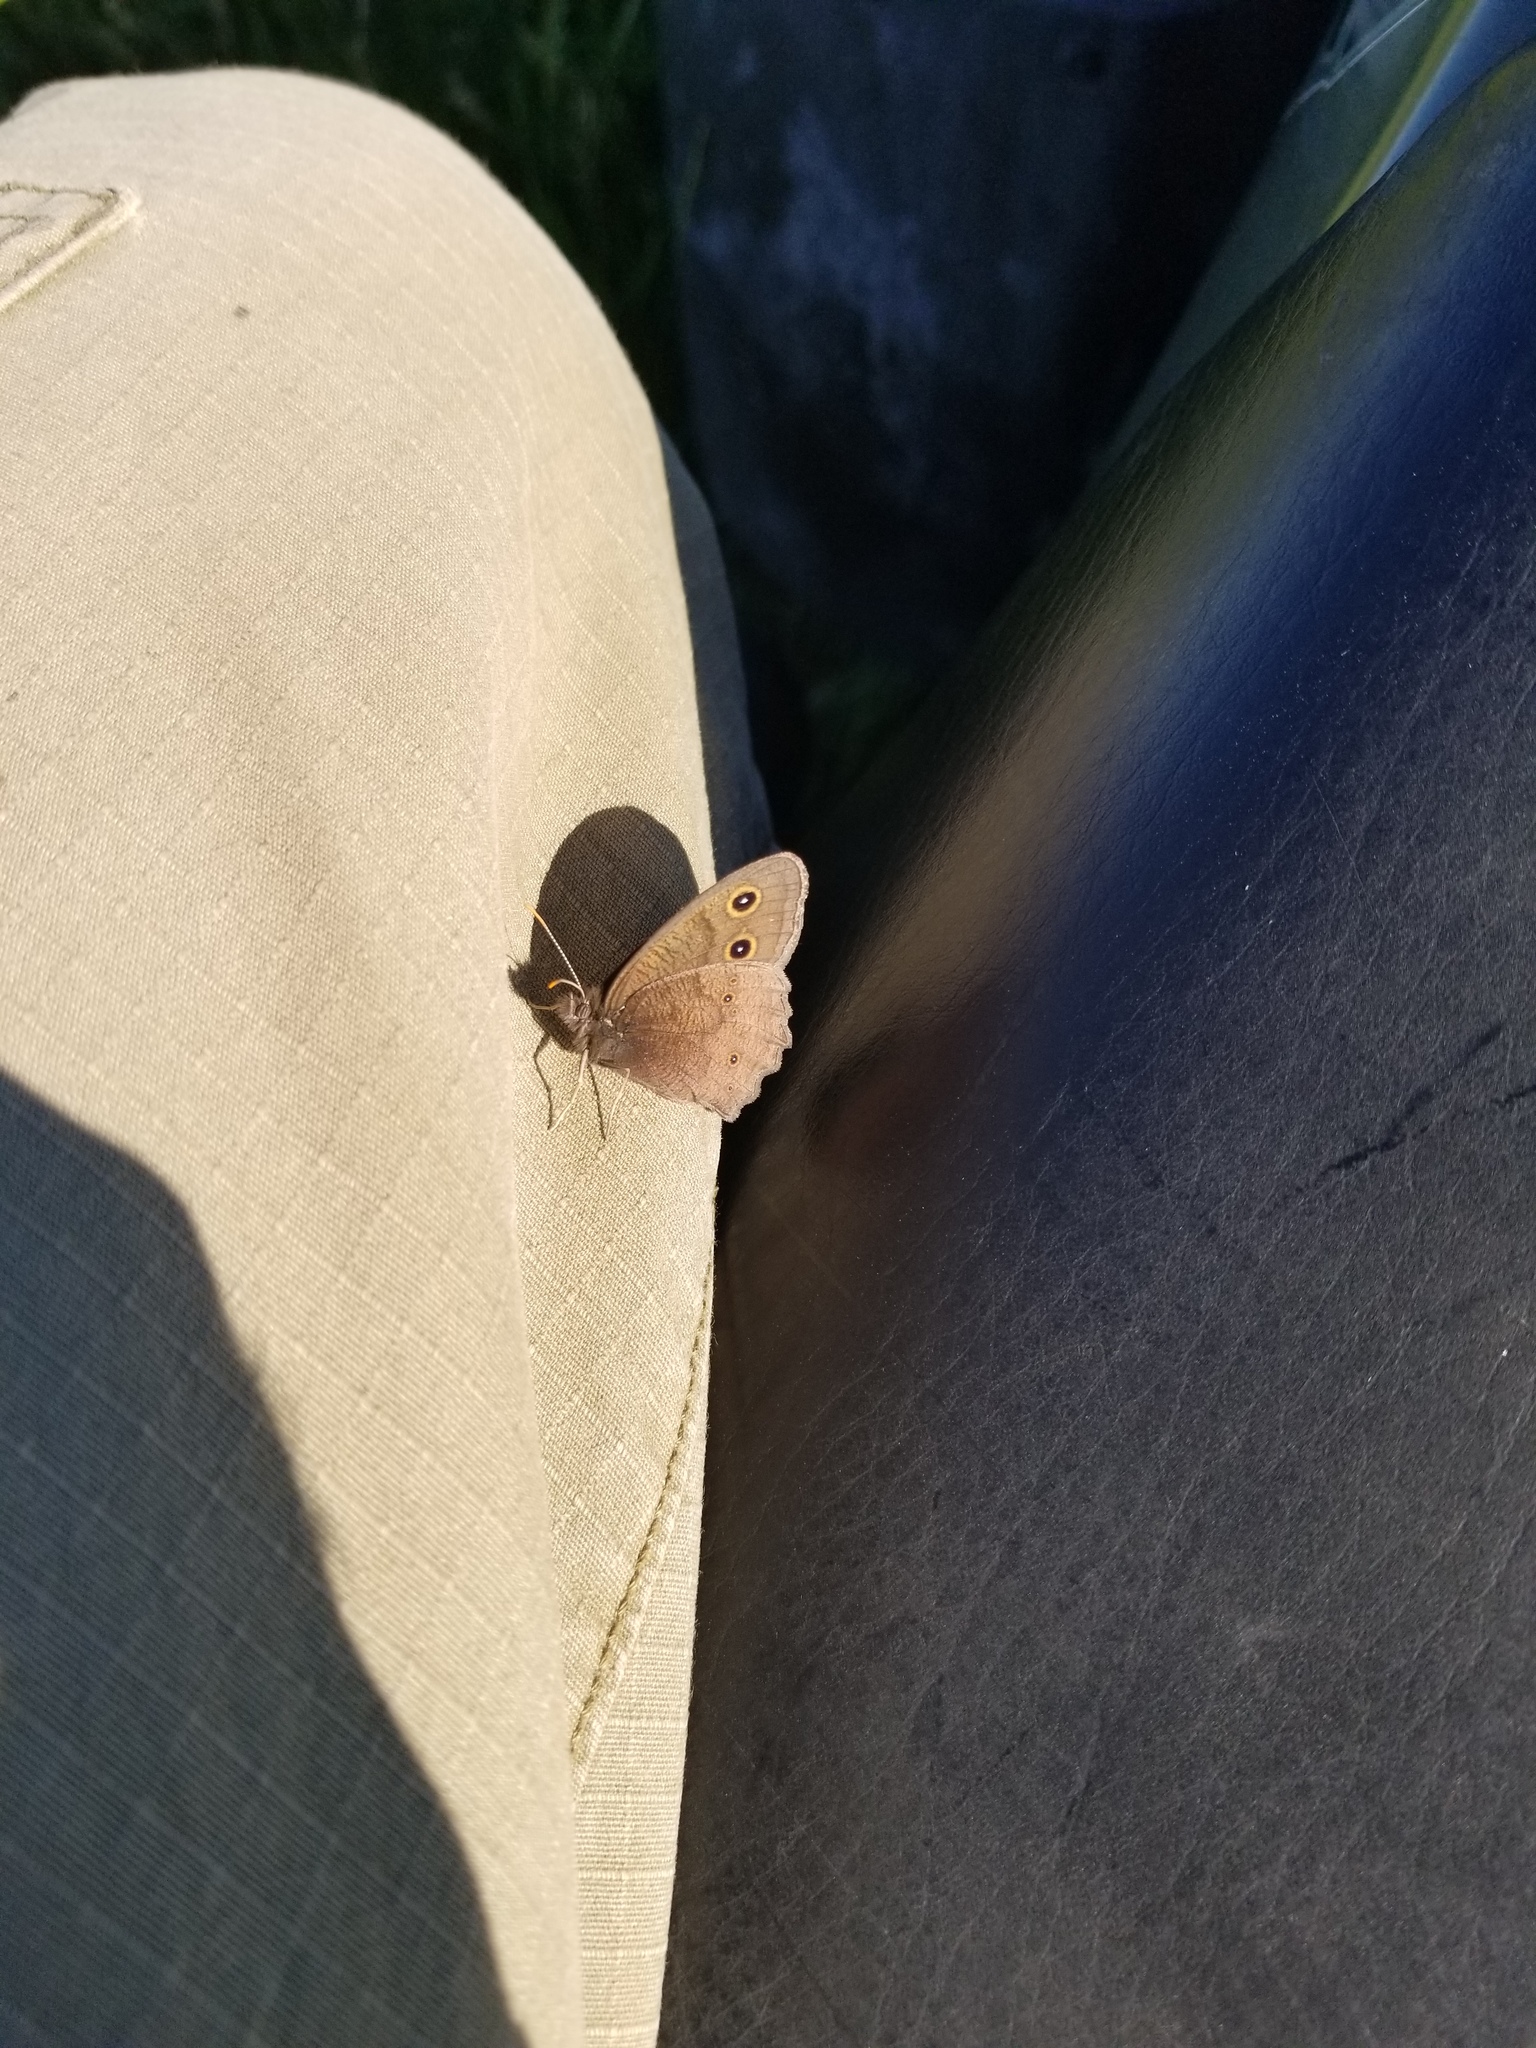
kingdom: Animalia
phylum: Arthropoda
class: Insecta
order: Lepidoptera
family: Nymphalidae
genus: Cercyonis
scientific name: Cercyonis pegala
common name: Common wood-nymph
